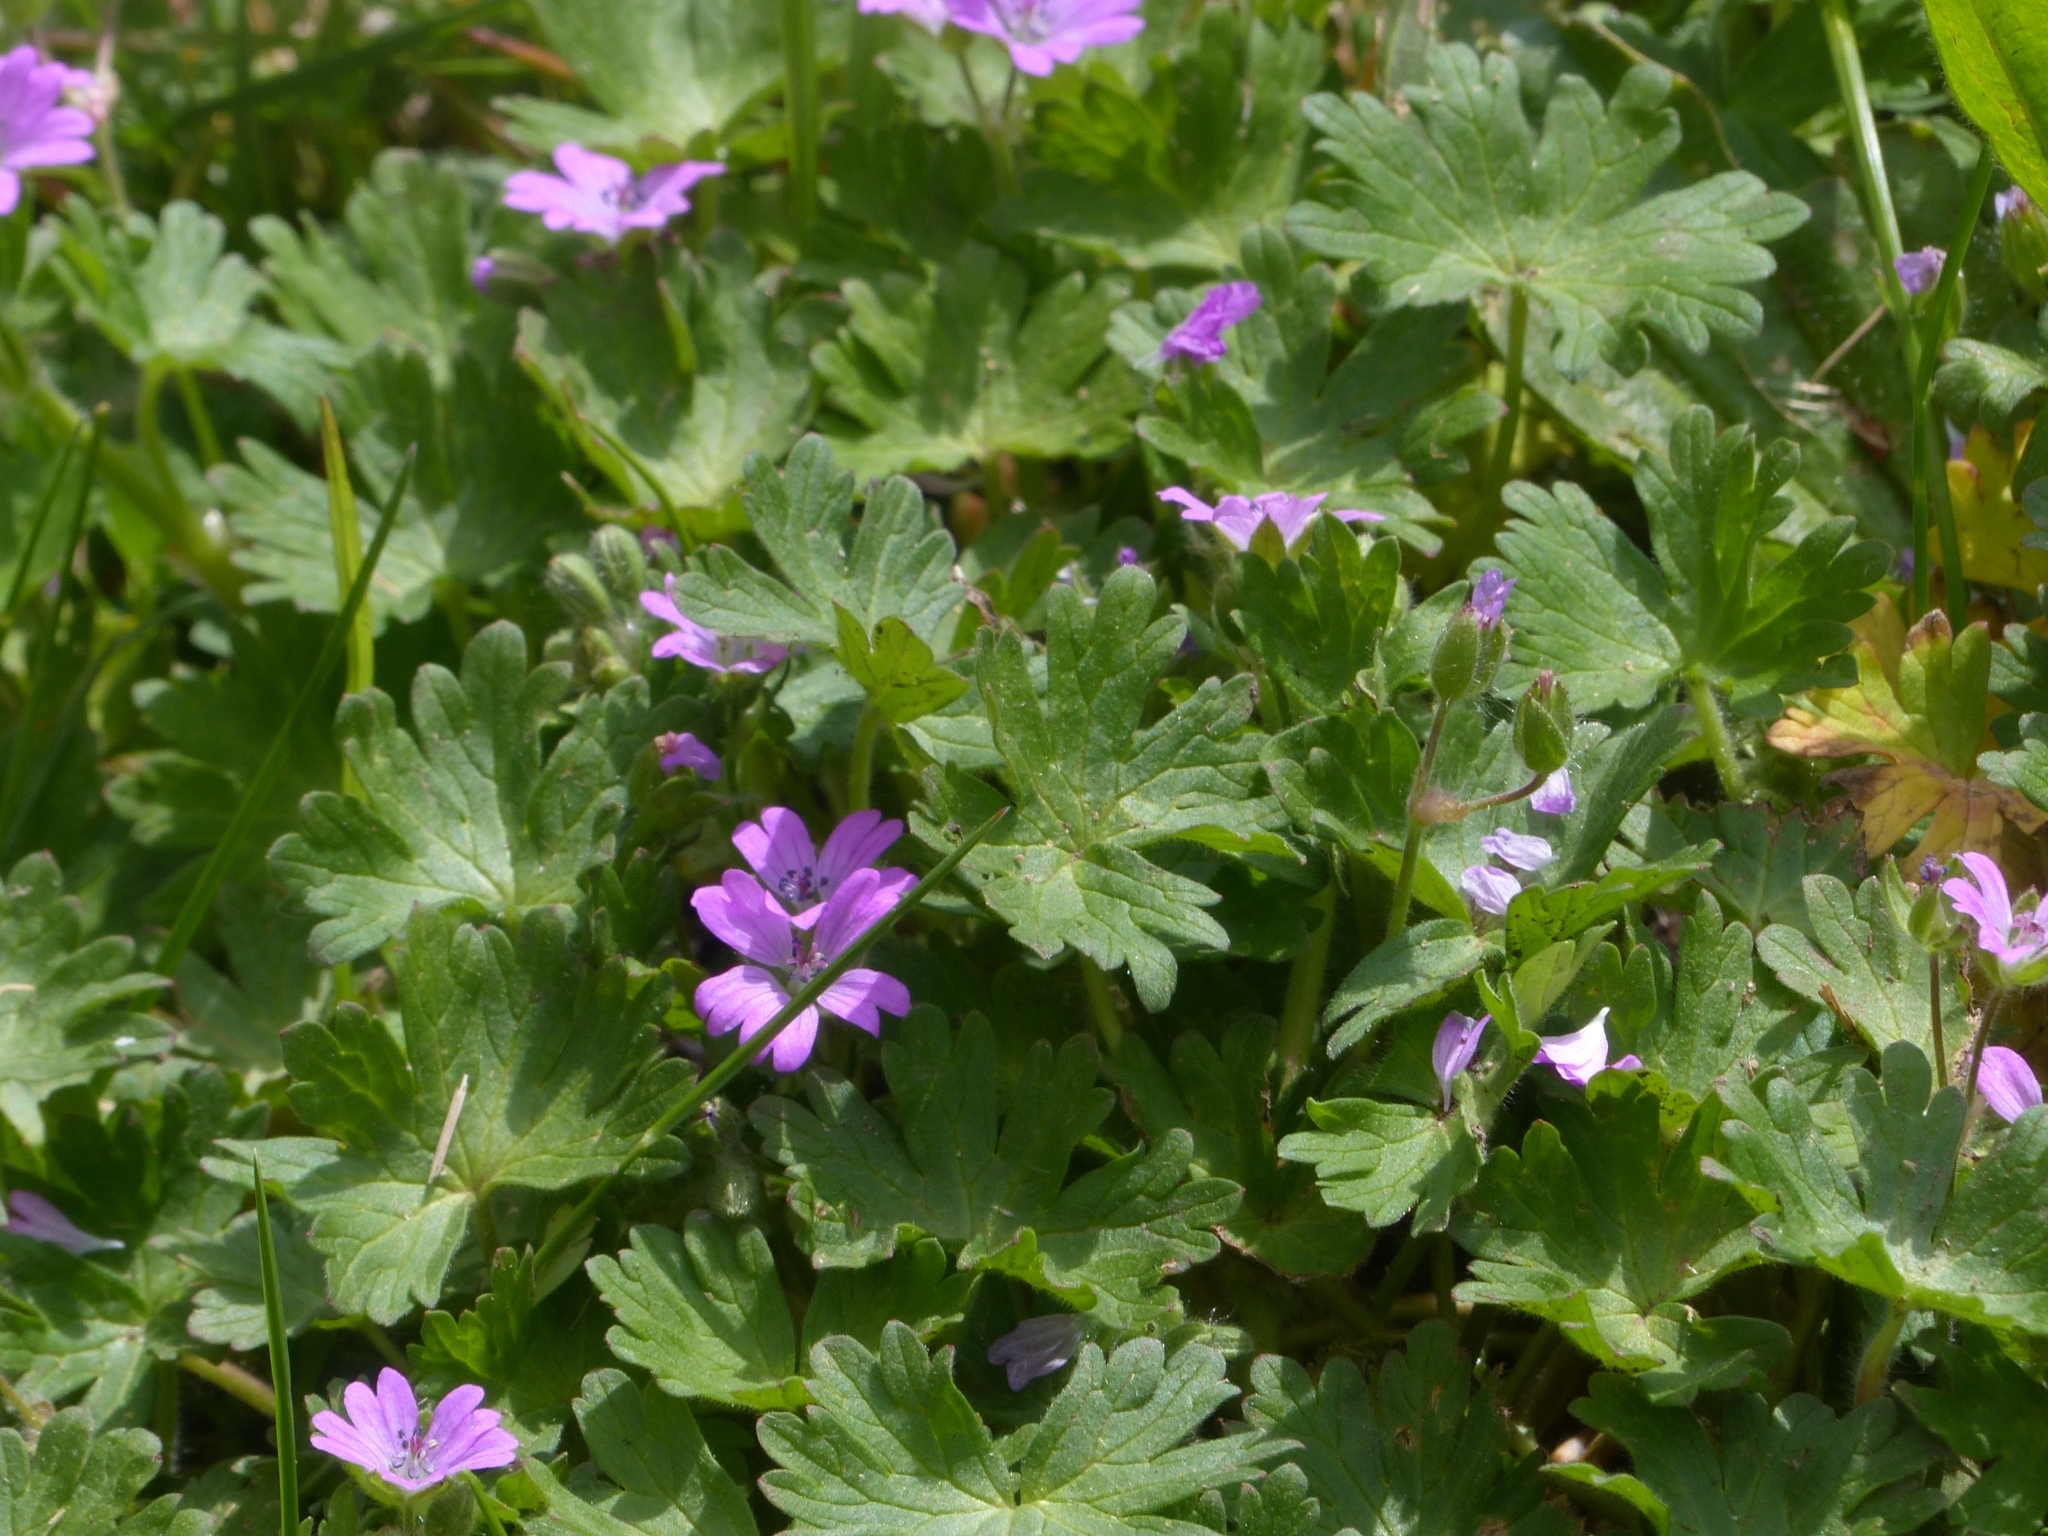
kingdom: Plantae
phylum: Tracheophyta
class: Magnoliopsida
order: Geraniales
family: Geraniaceae
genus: Geranium
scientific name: Geranium molle
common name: Dove's-foot crane's-bill
